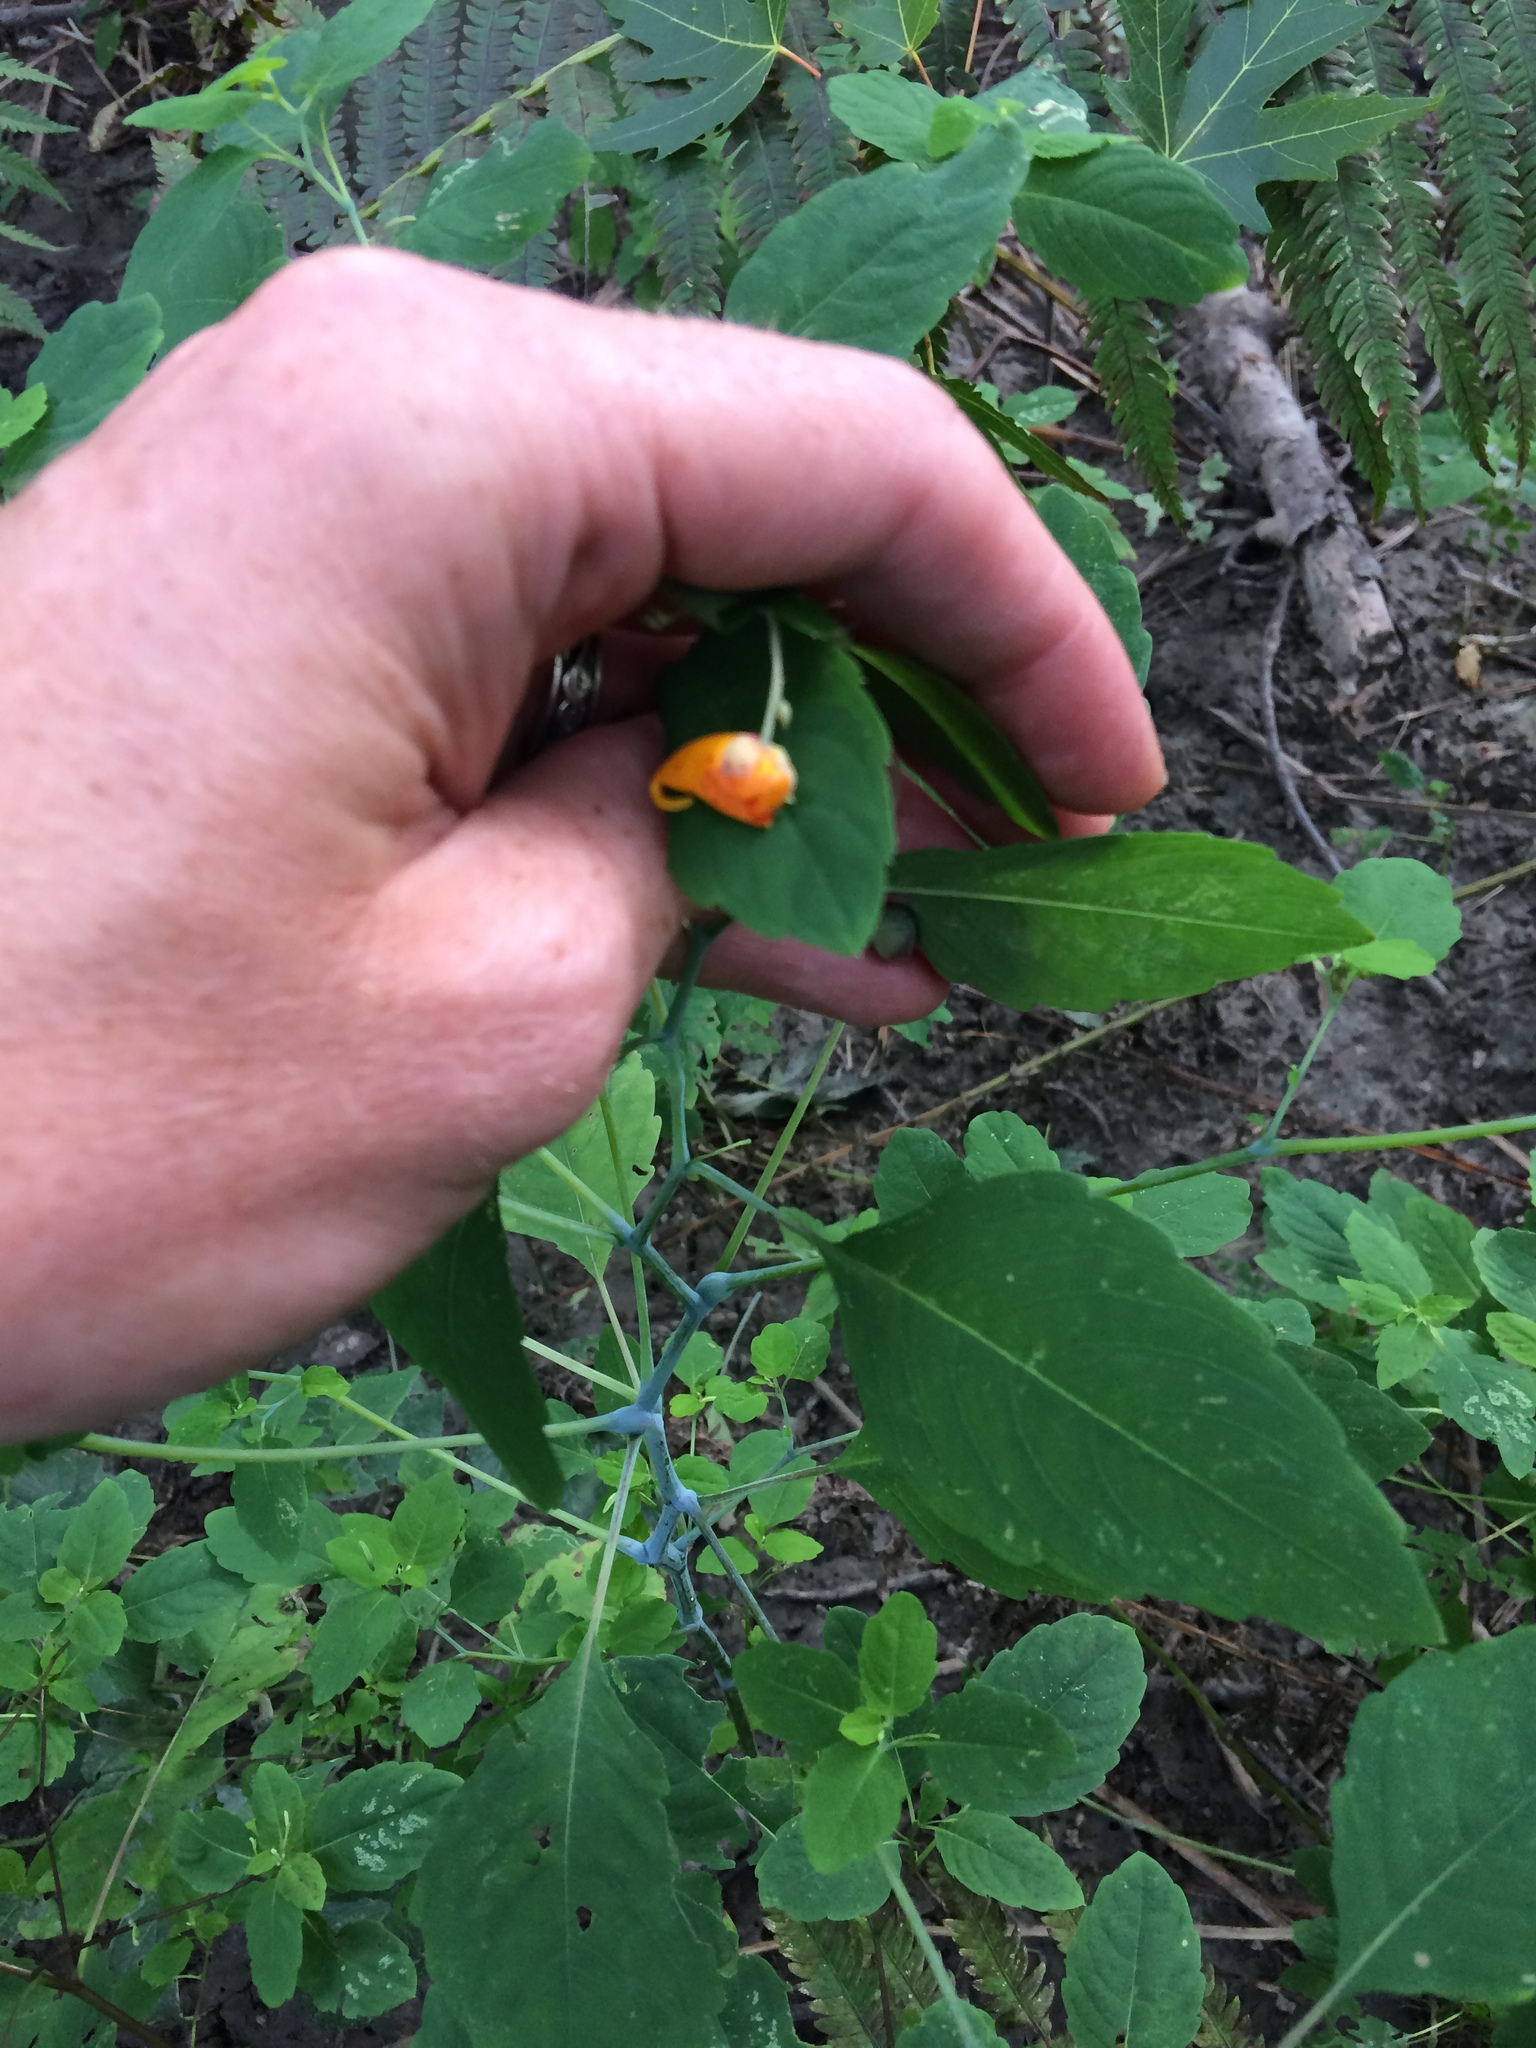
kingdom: Plantae
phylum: Tracheophyta
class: Magnoliopsida
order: Ericales
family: Balsaminaceae
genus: Impatiens
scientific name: Impatiens capensis
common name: Orange balsam
